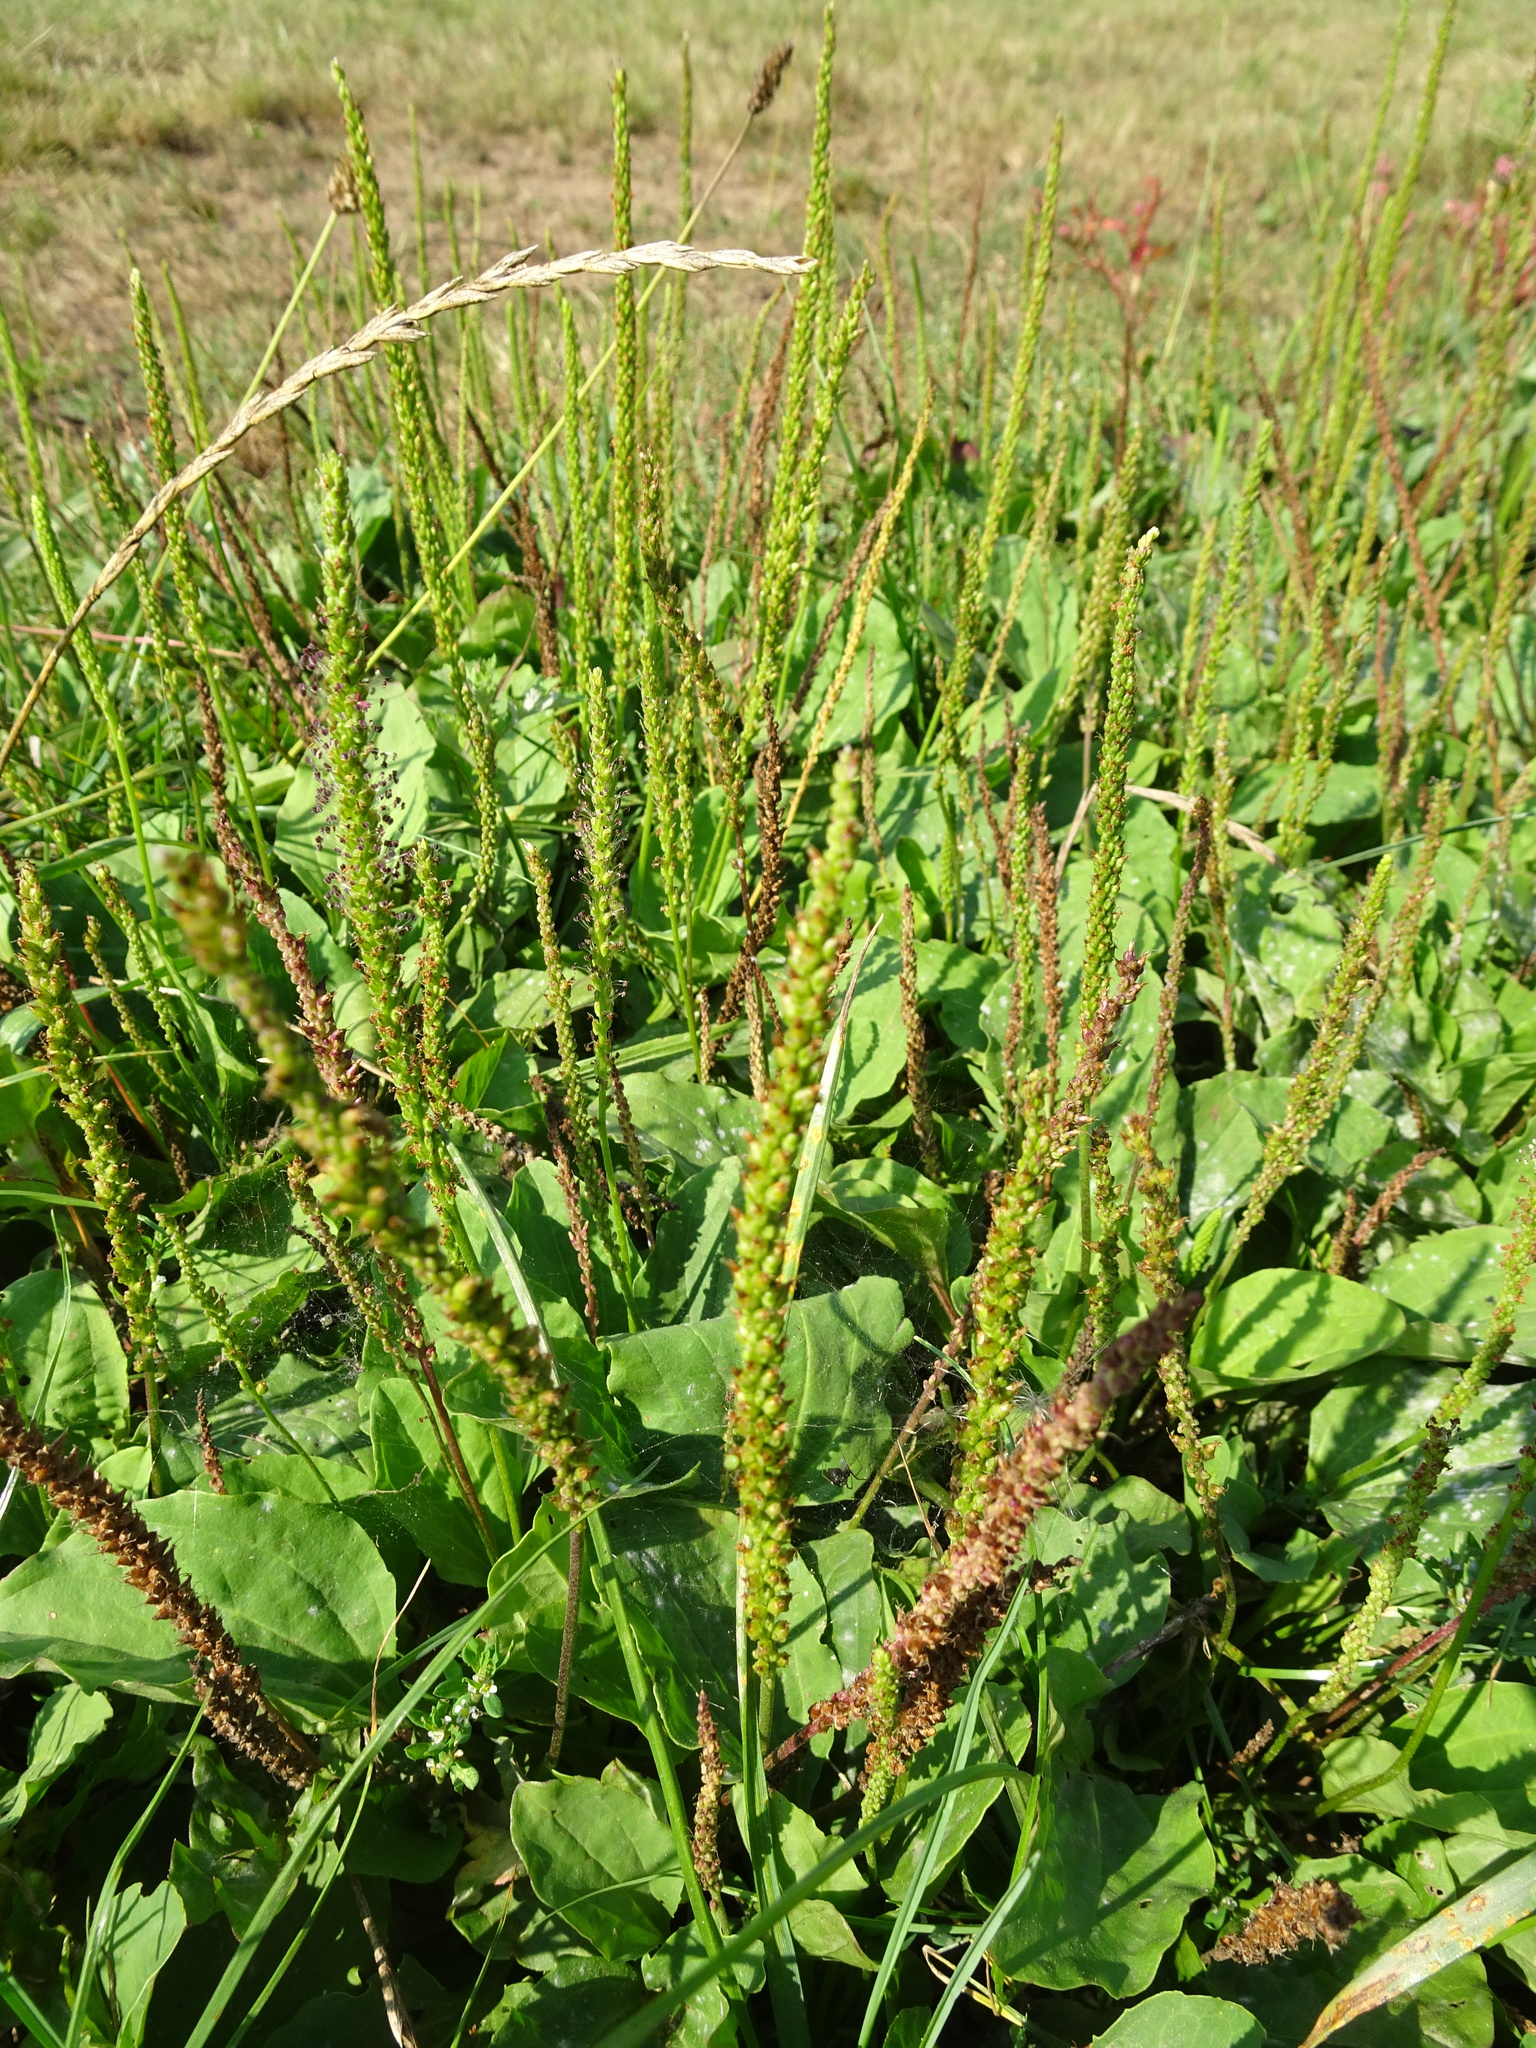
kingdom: Plantae
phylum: Tracheophyta
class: Magnoliopsida
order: Lamiales
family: Plantaginaceae
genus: Plantago
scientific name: Plantago major
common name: Common plantain
